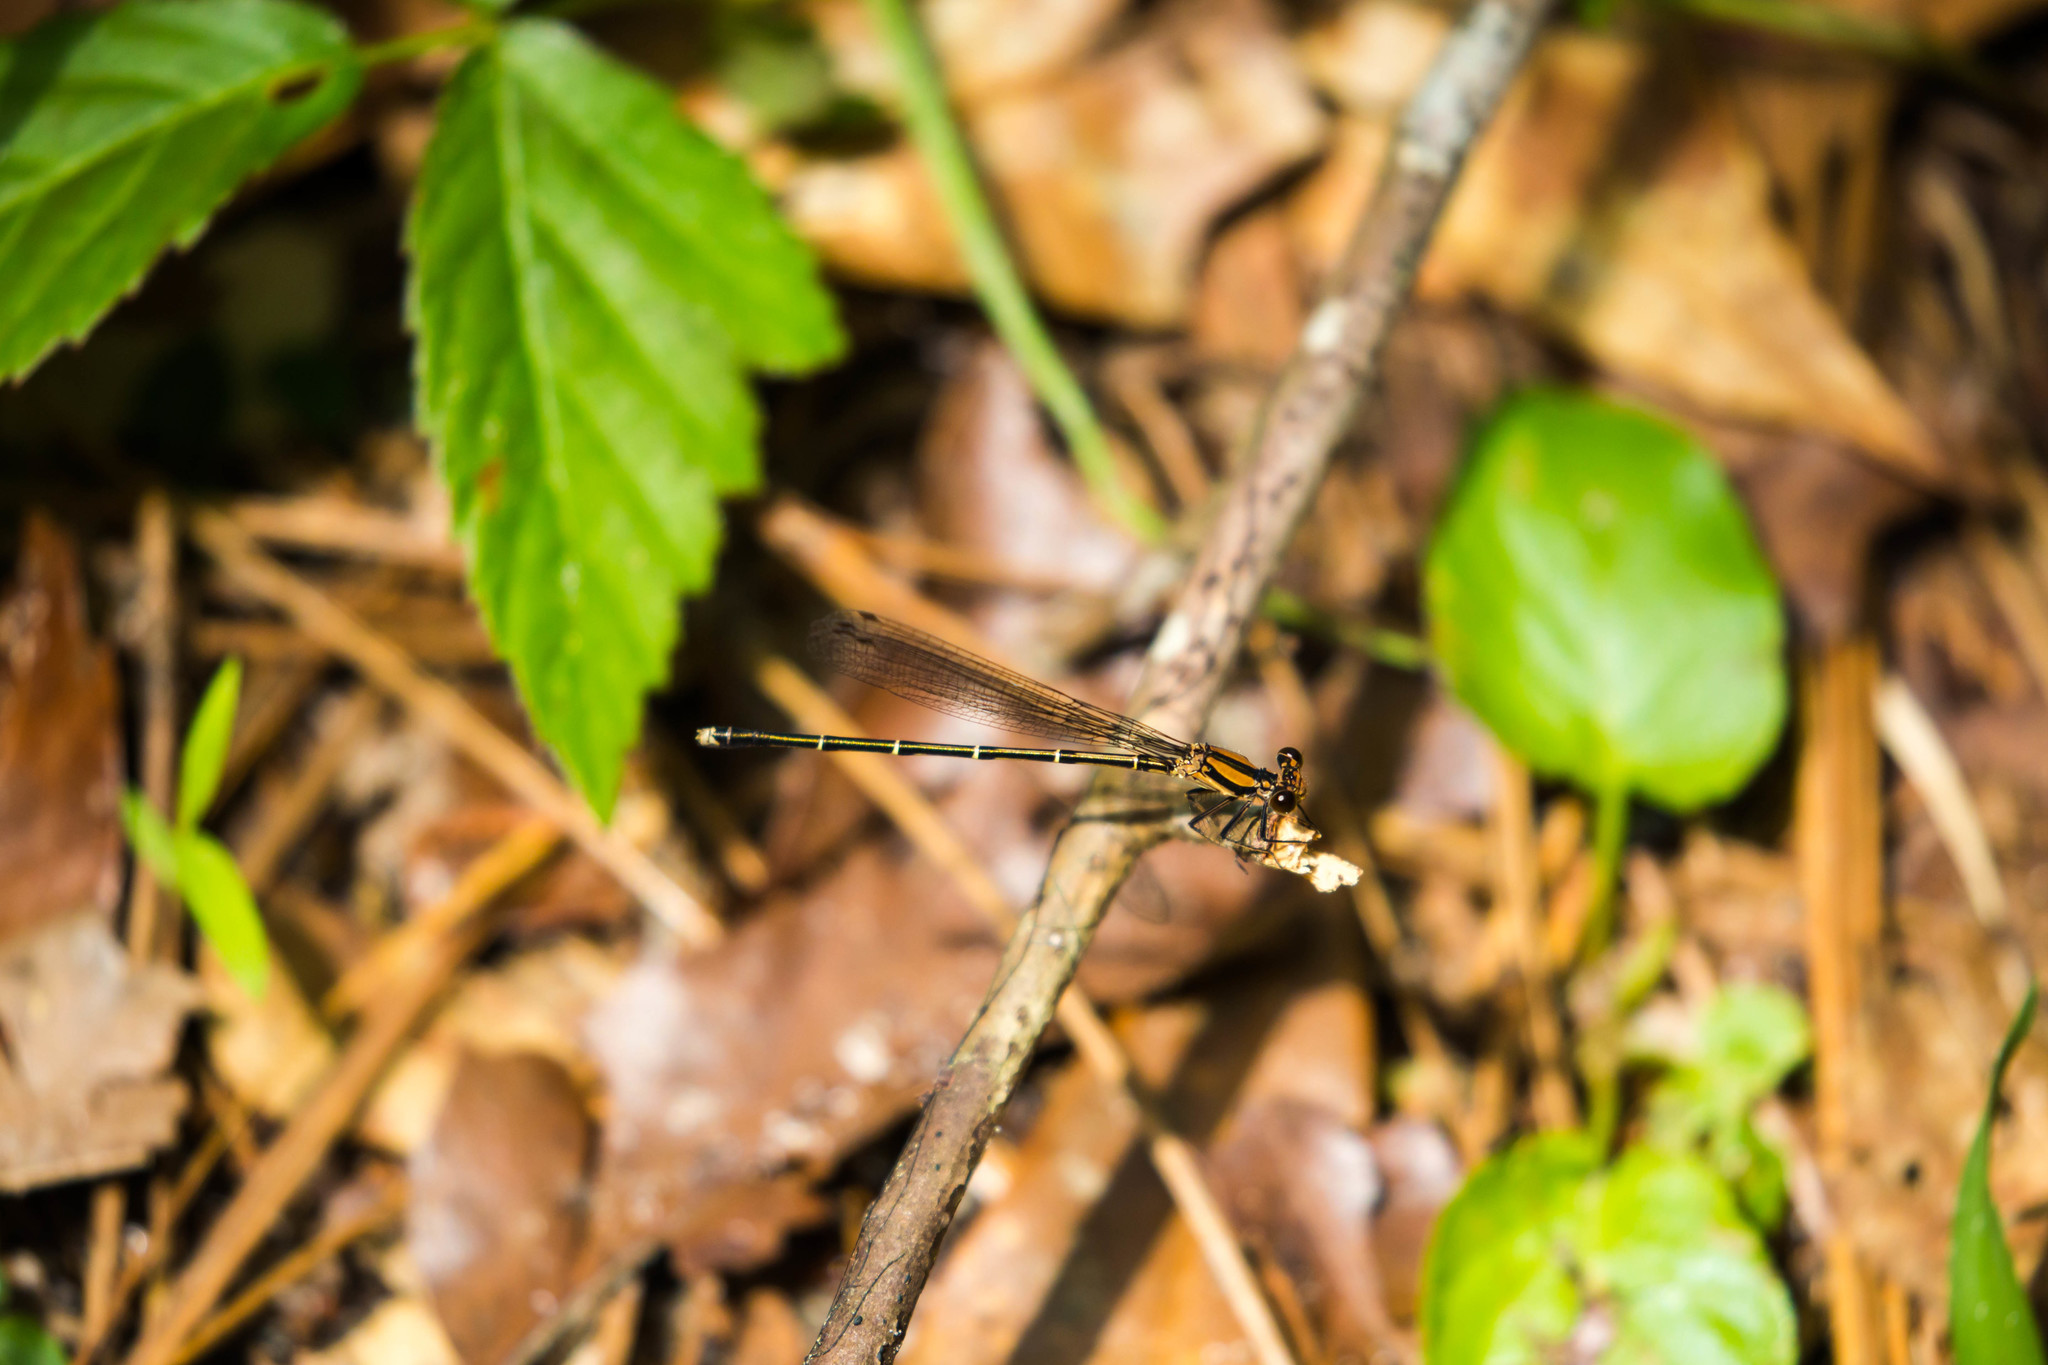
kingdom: Animalia
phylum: Arthropoda
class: Insecta
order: Odonata
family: Coenagrionidae
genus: Argia
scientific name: Argia tibialis
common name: Blue-tipped dancer
